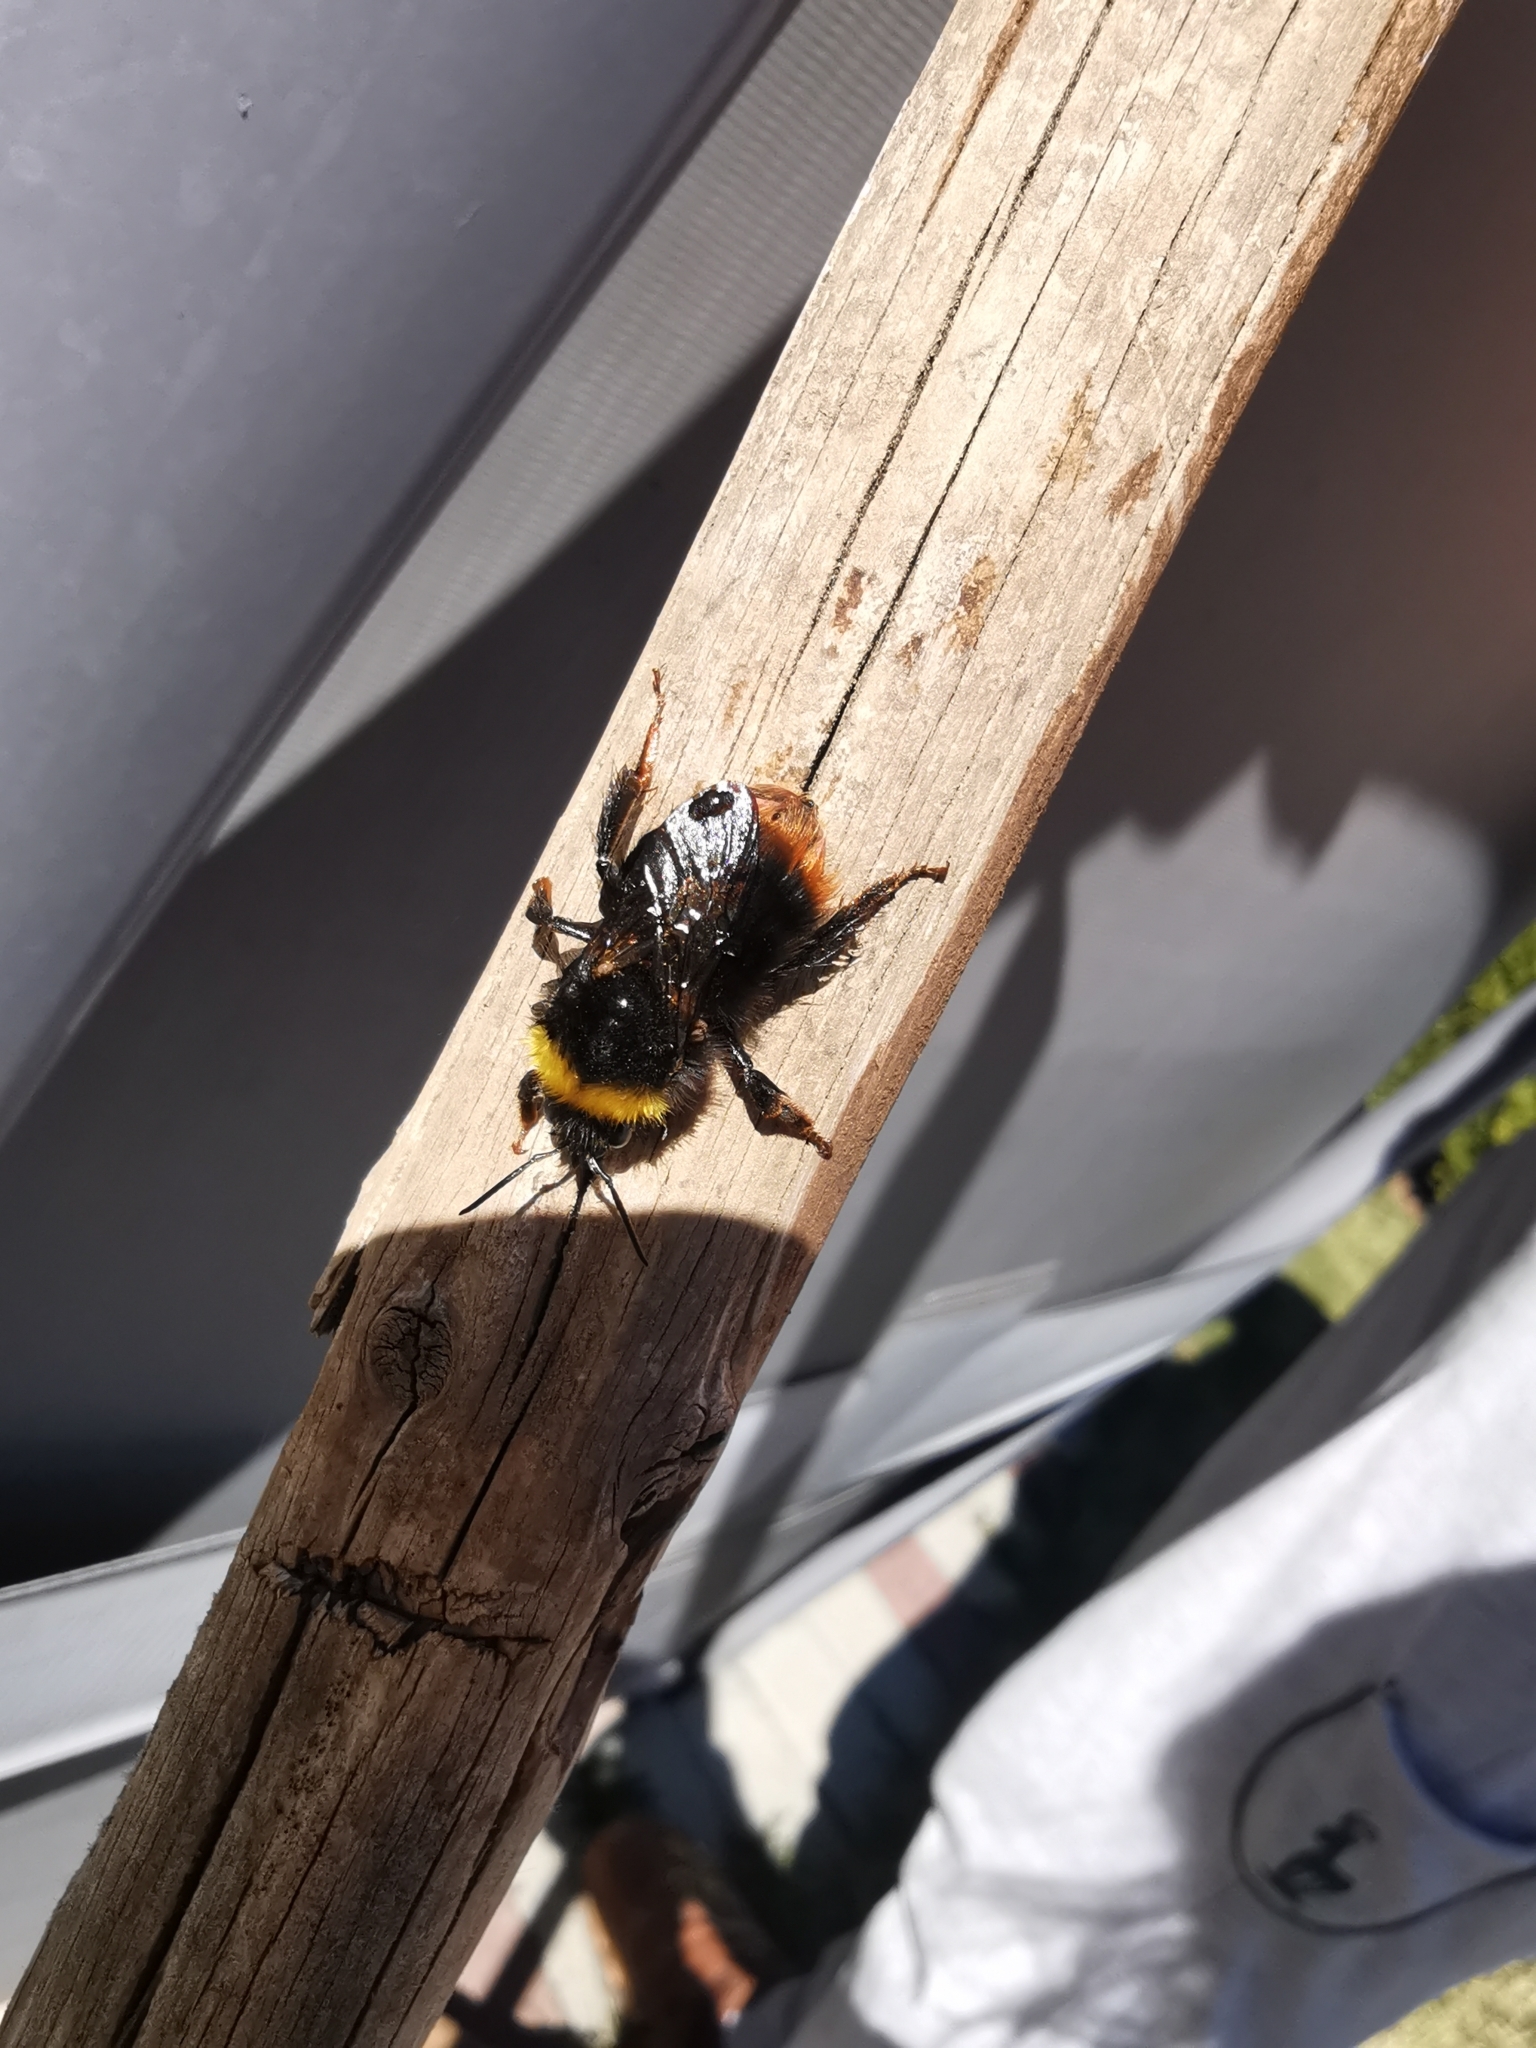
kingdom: Animalia
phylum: Arthropoda
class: Insecta
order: Hymenoptera
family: Apidae
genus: Bombus
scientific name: Bombus pratorum
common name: Early humble-bee
